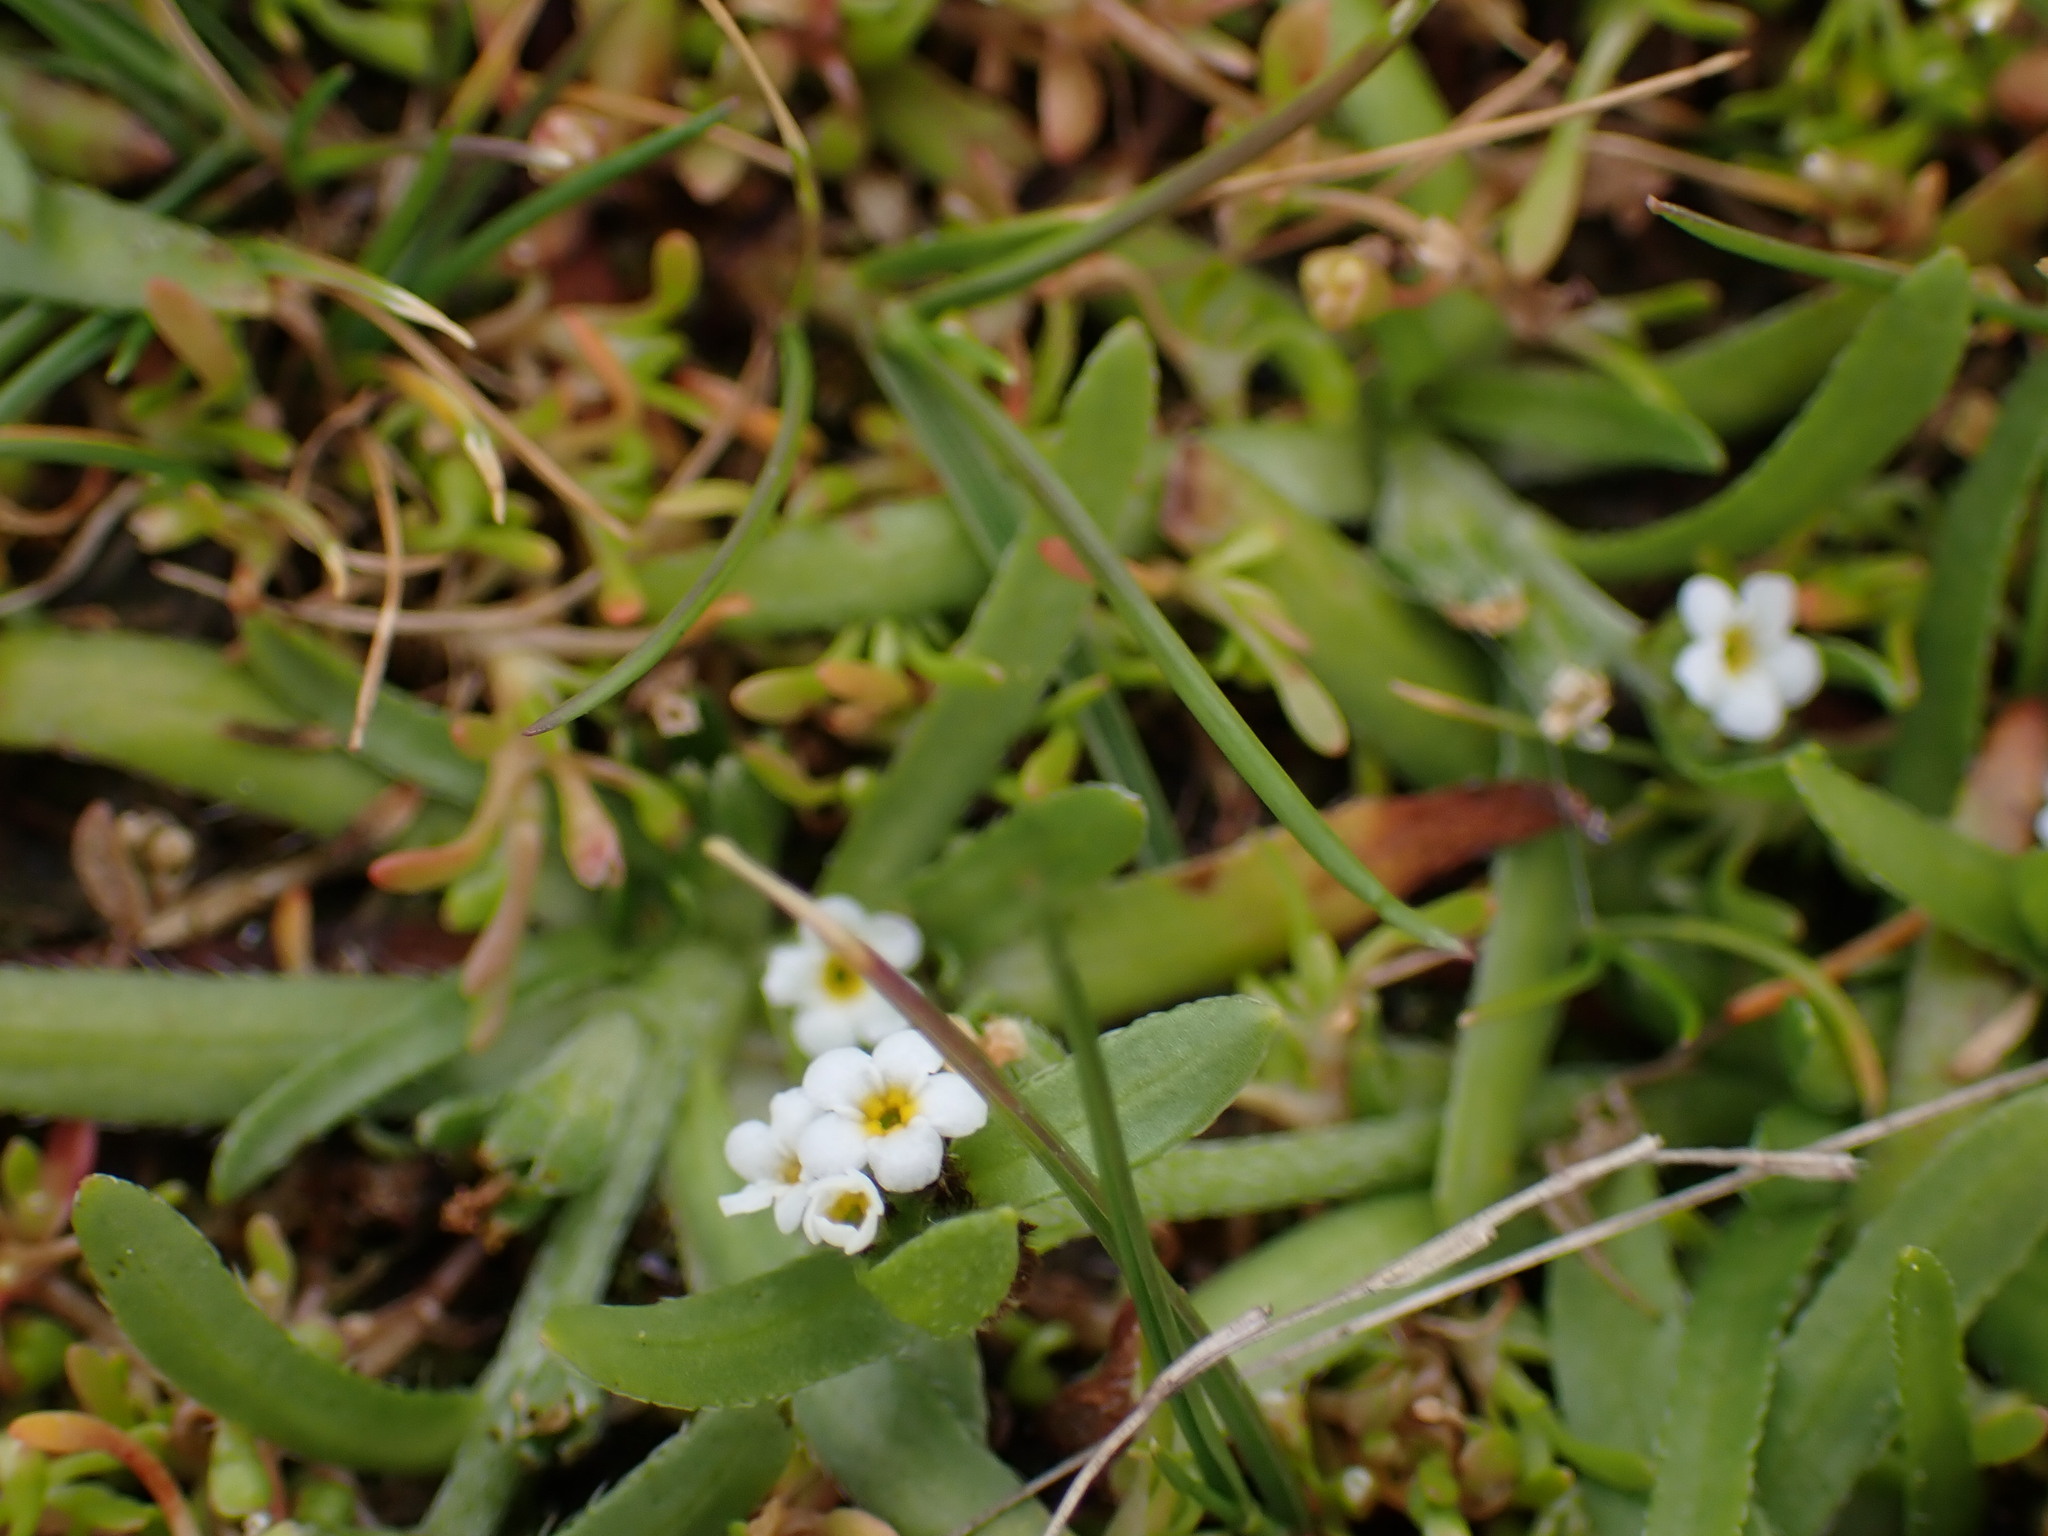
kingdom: Plantae
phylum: Tracheophyta
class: Magnoliopsida
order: Boraginales
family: Boraginaceae
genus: Plagiobothrys
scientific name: Plagiobothrys scouleri
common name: White forget-me-not
